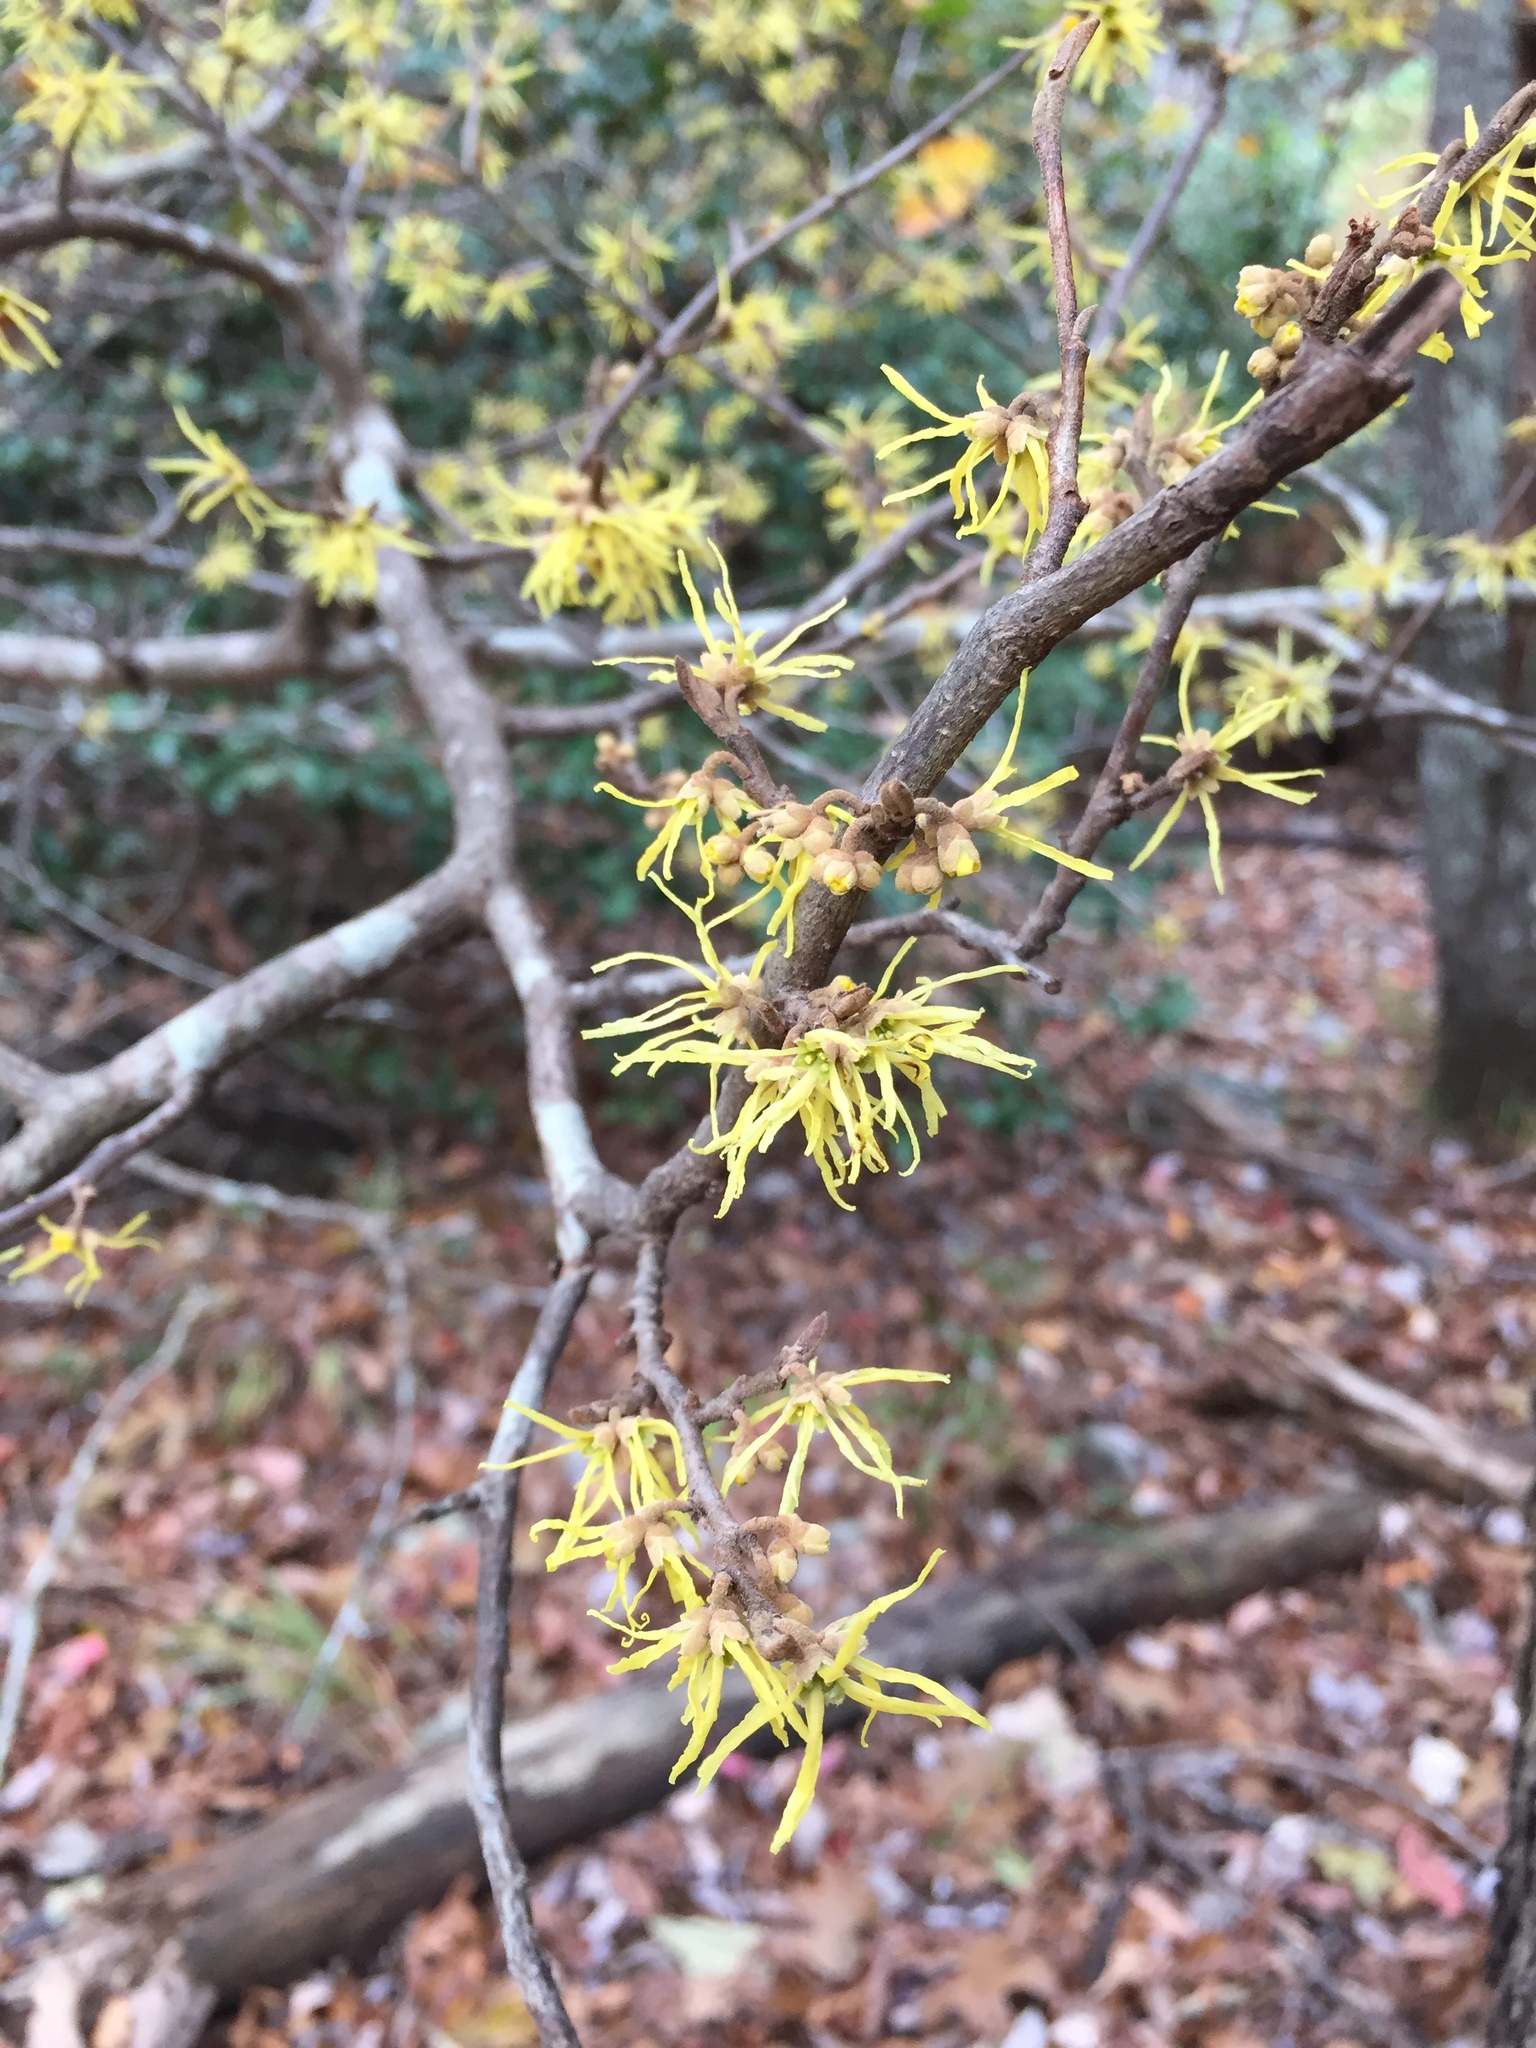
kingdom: Plantae
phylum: Tracheophyta
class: Magnoliopsida
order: Saxifragales
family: Hamamelidaceae
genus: Hamamelis
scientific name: Hamamelis virginiana
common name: Witch-hazel
